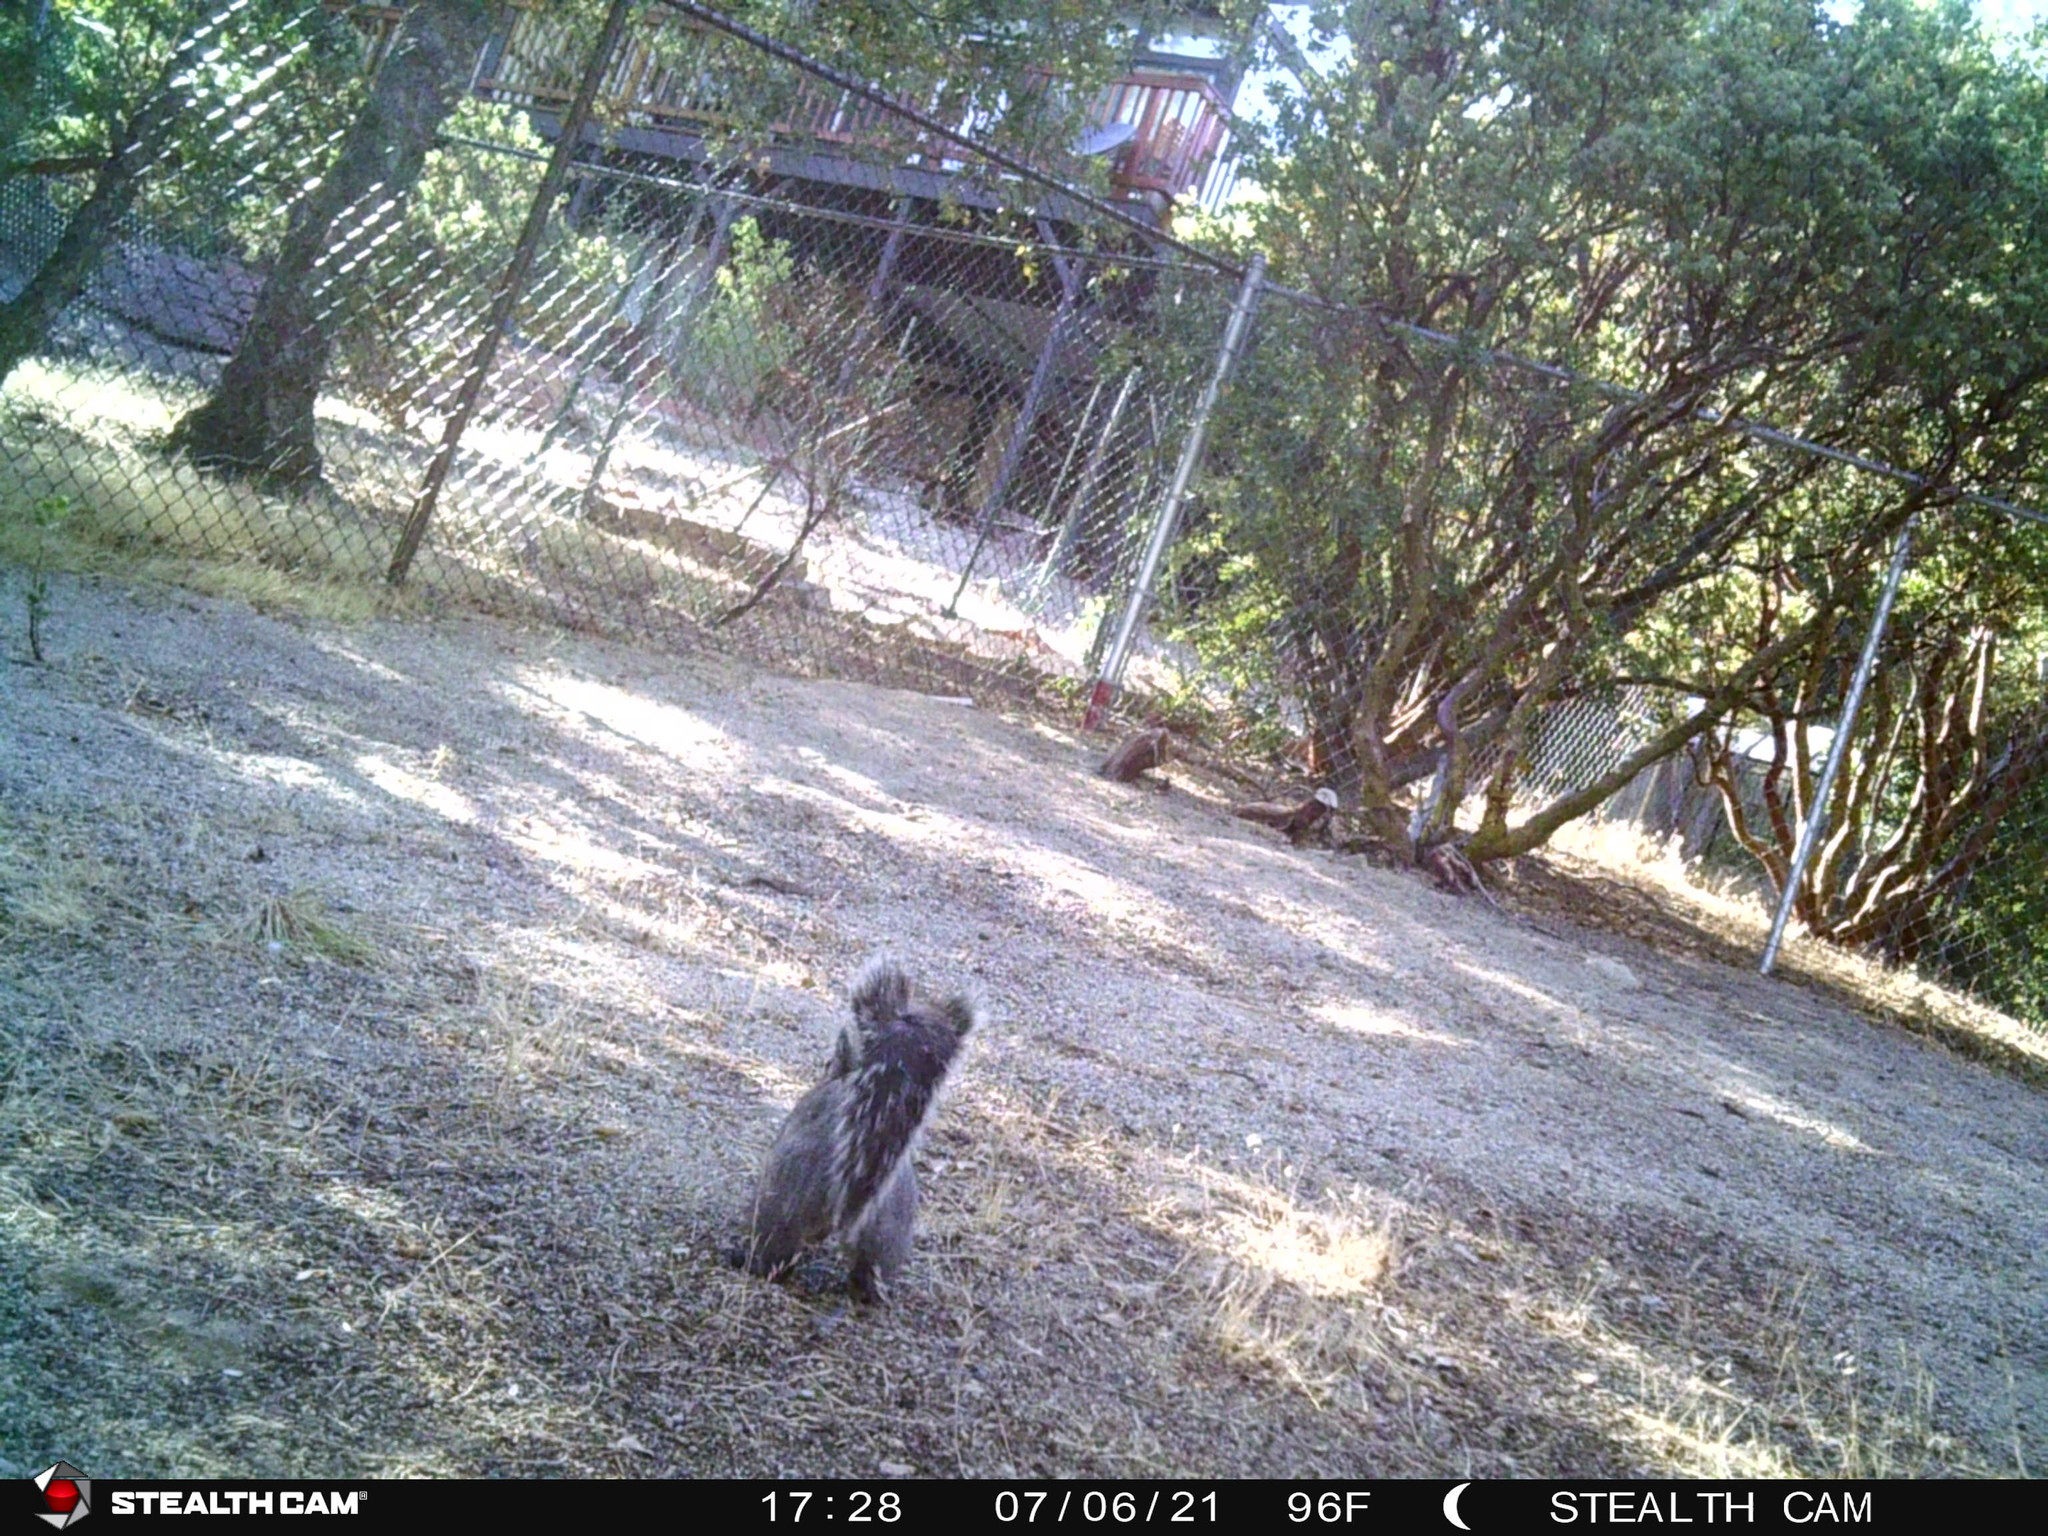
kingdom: Animalia
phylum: Chordata
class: Mammalia
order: Rodentia
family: Sciuridae
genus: Sciurus
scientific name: Sciurus griseus
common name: Western gray squirrel
